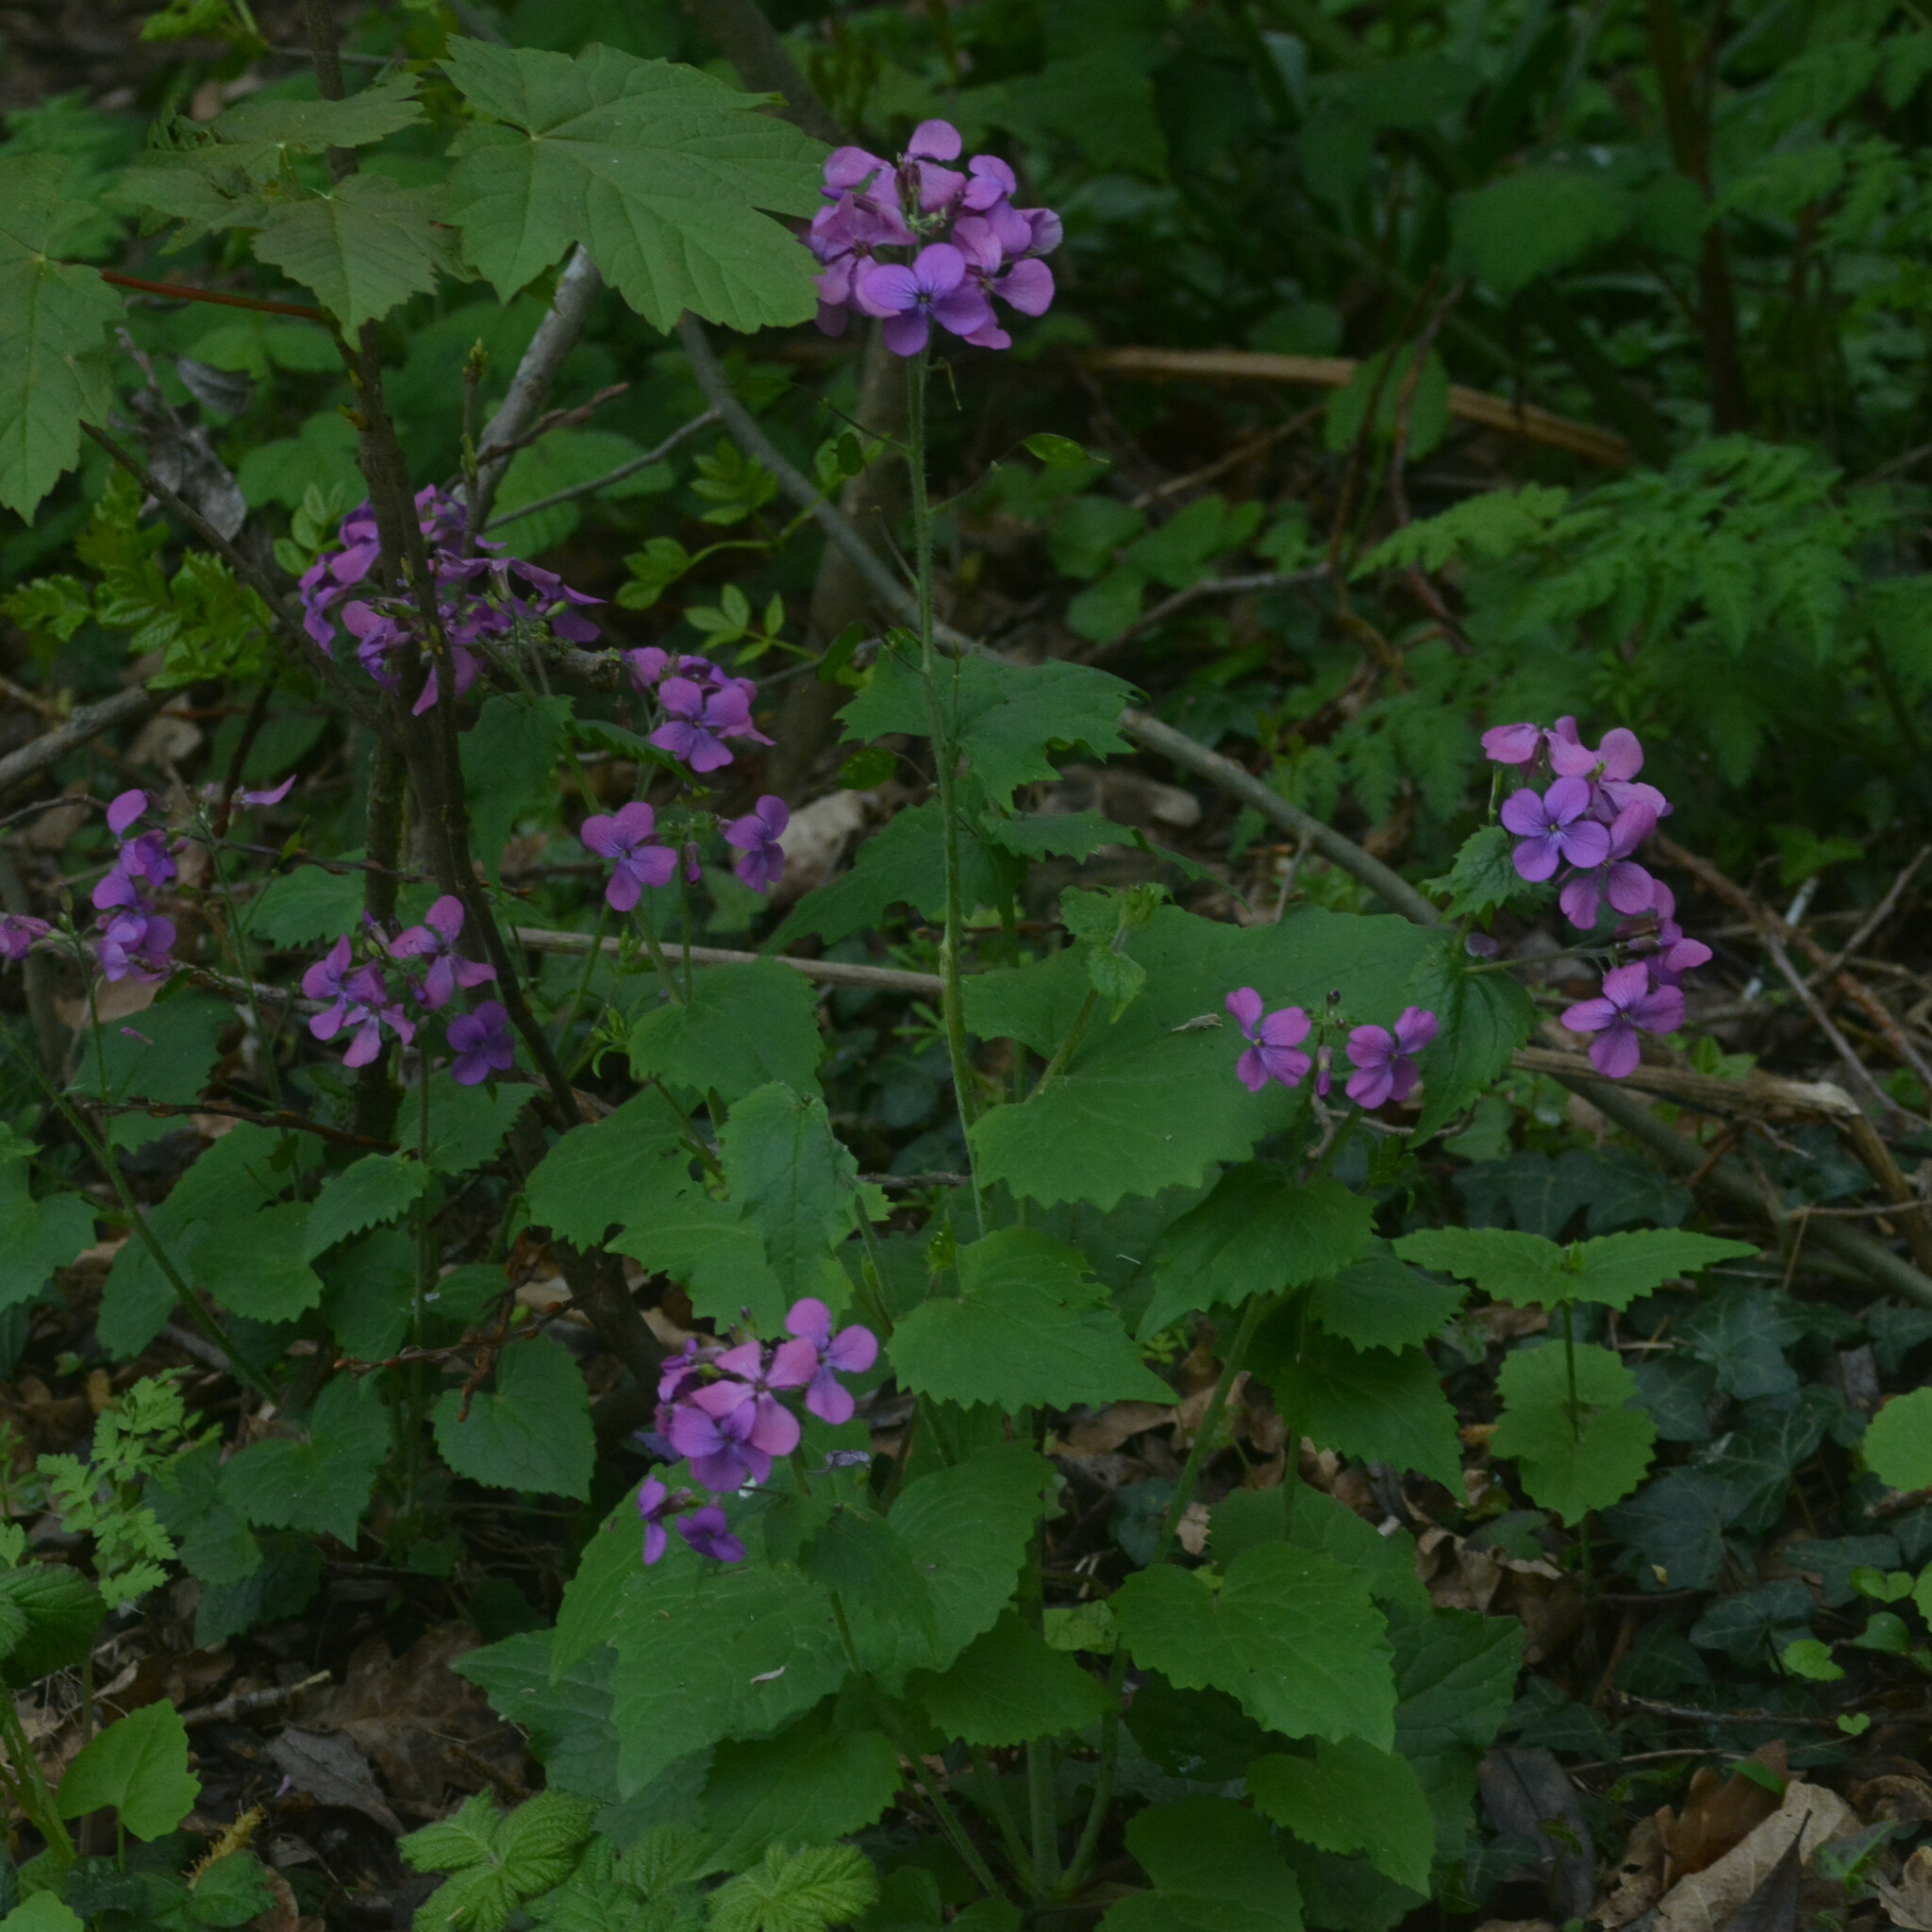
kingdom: Plantae
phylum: Tracheophyta
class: Magnoliopsida
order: Brassicales
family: Brassicaceae
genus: Lunaria
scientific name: Lunaria annua
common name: Honesty
